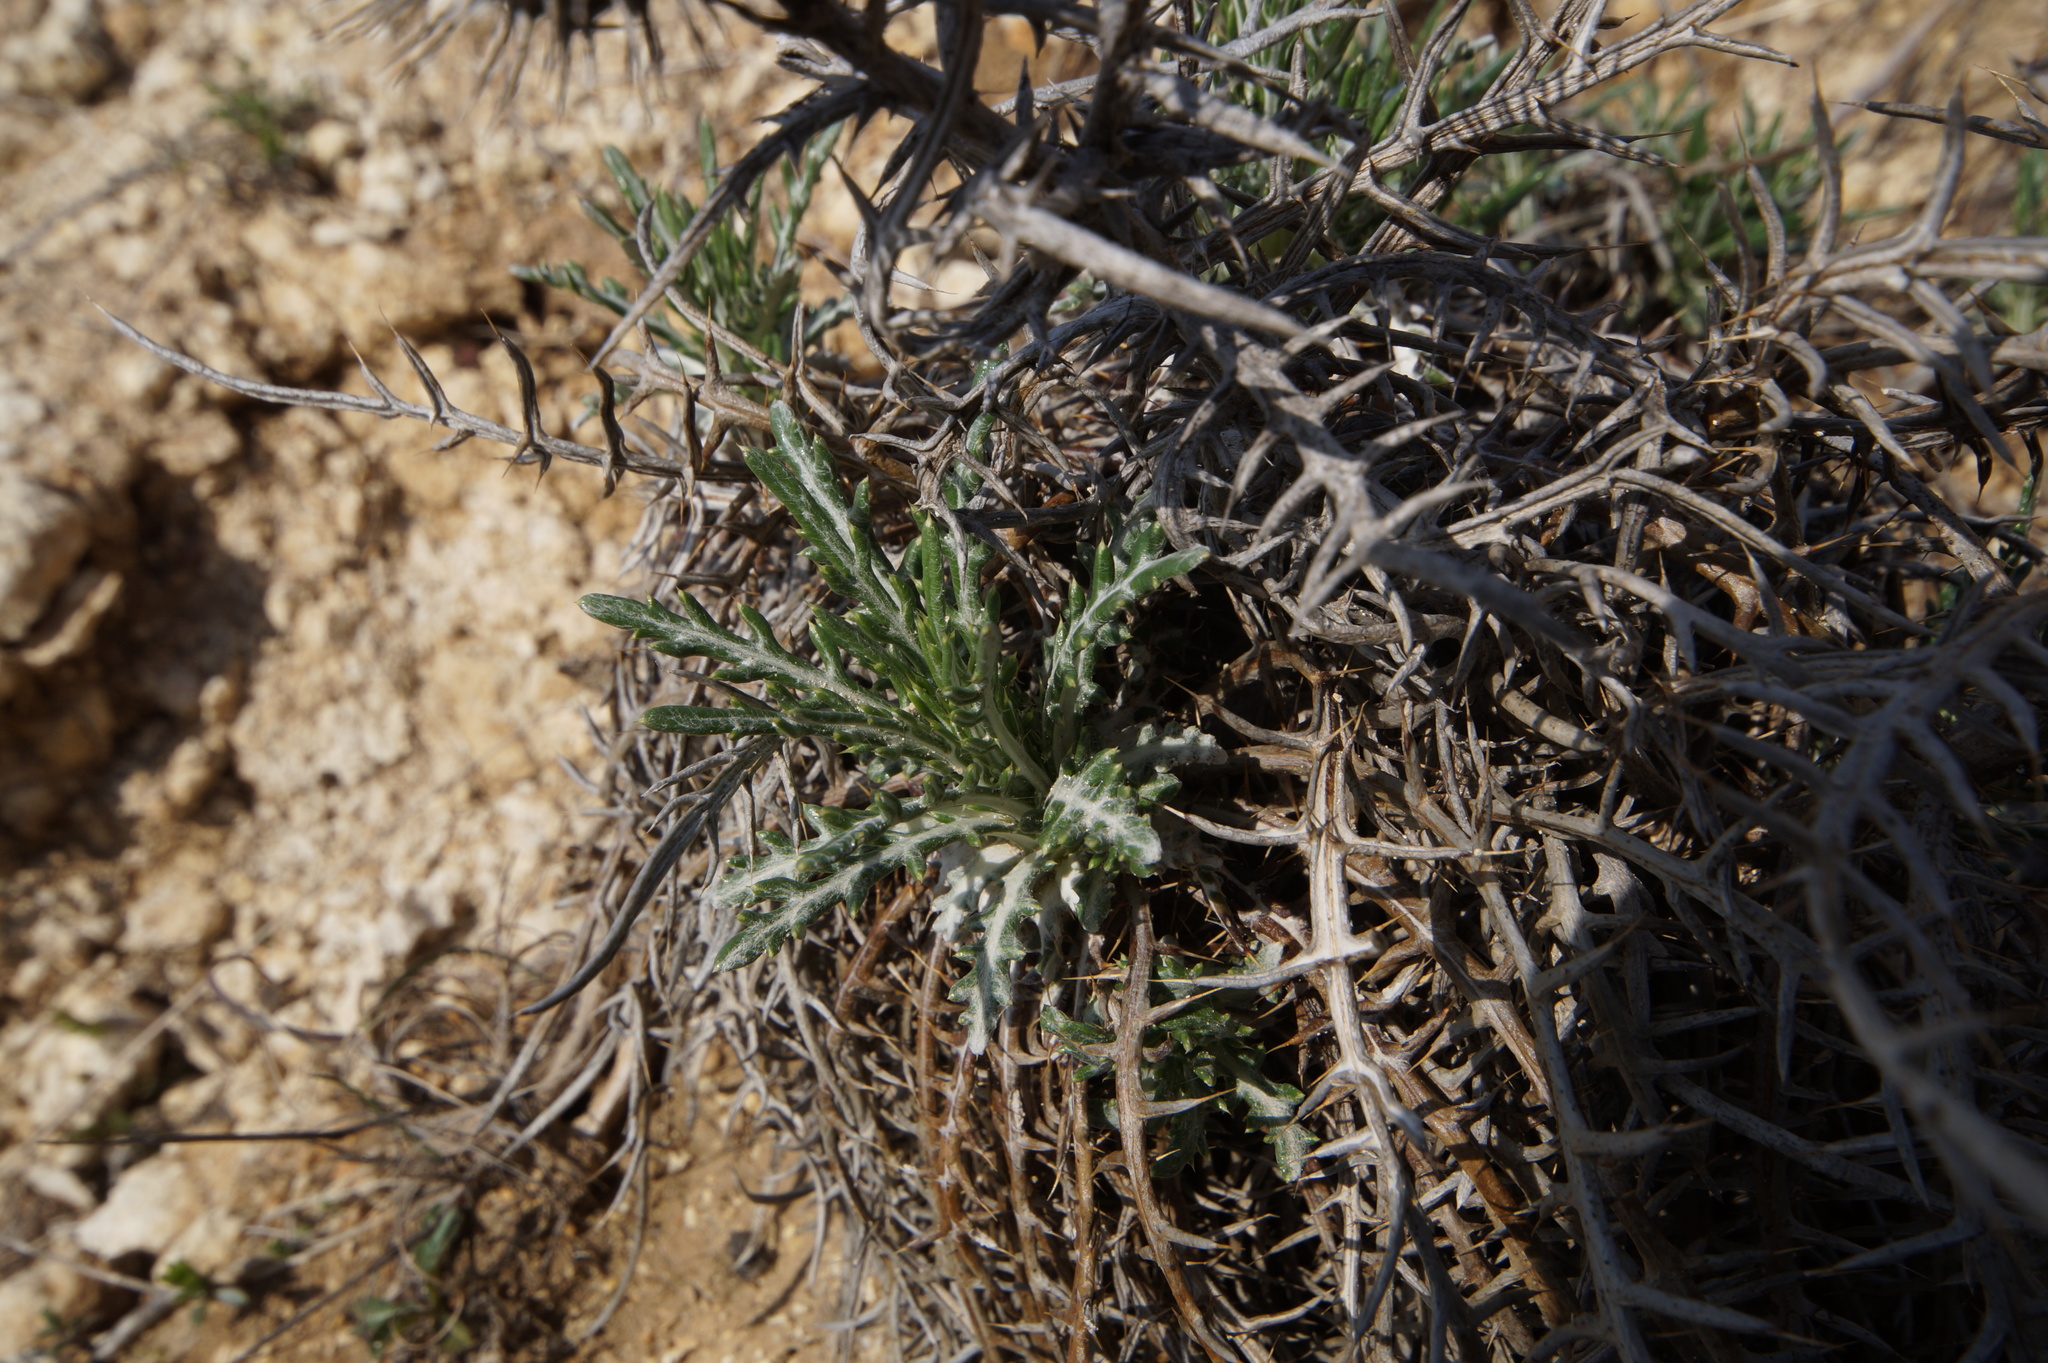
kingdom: Plantae
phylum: Tracheophyta
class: Magnoliopsida
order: Asterales
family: Asteraceae
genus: Ptilostemon
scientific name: Ptilostemon echinocephalus
